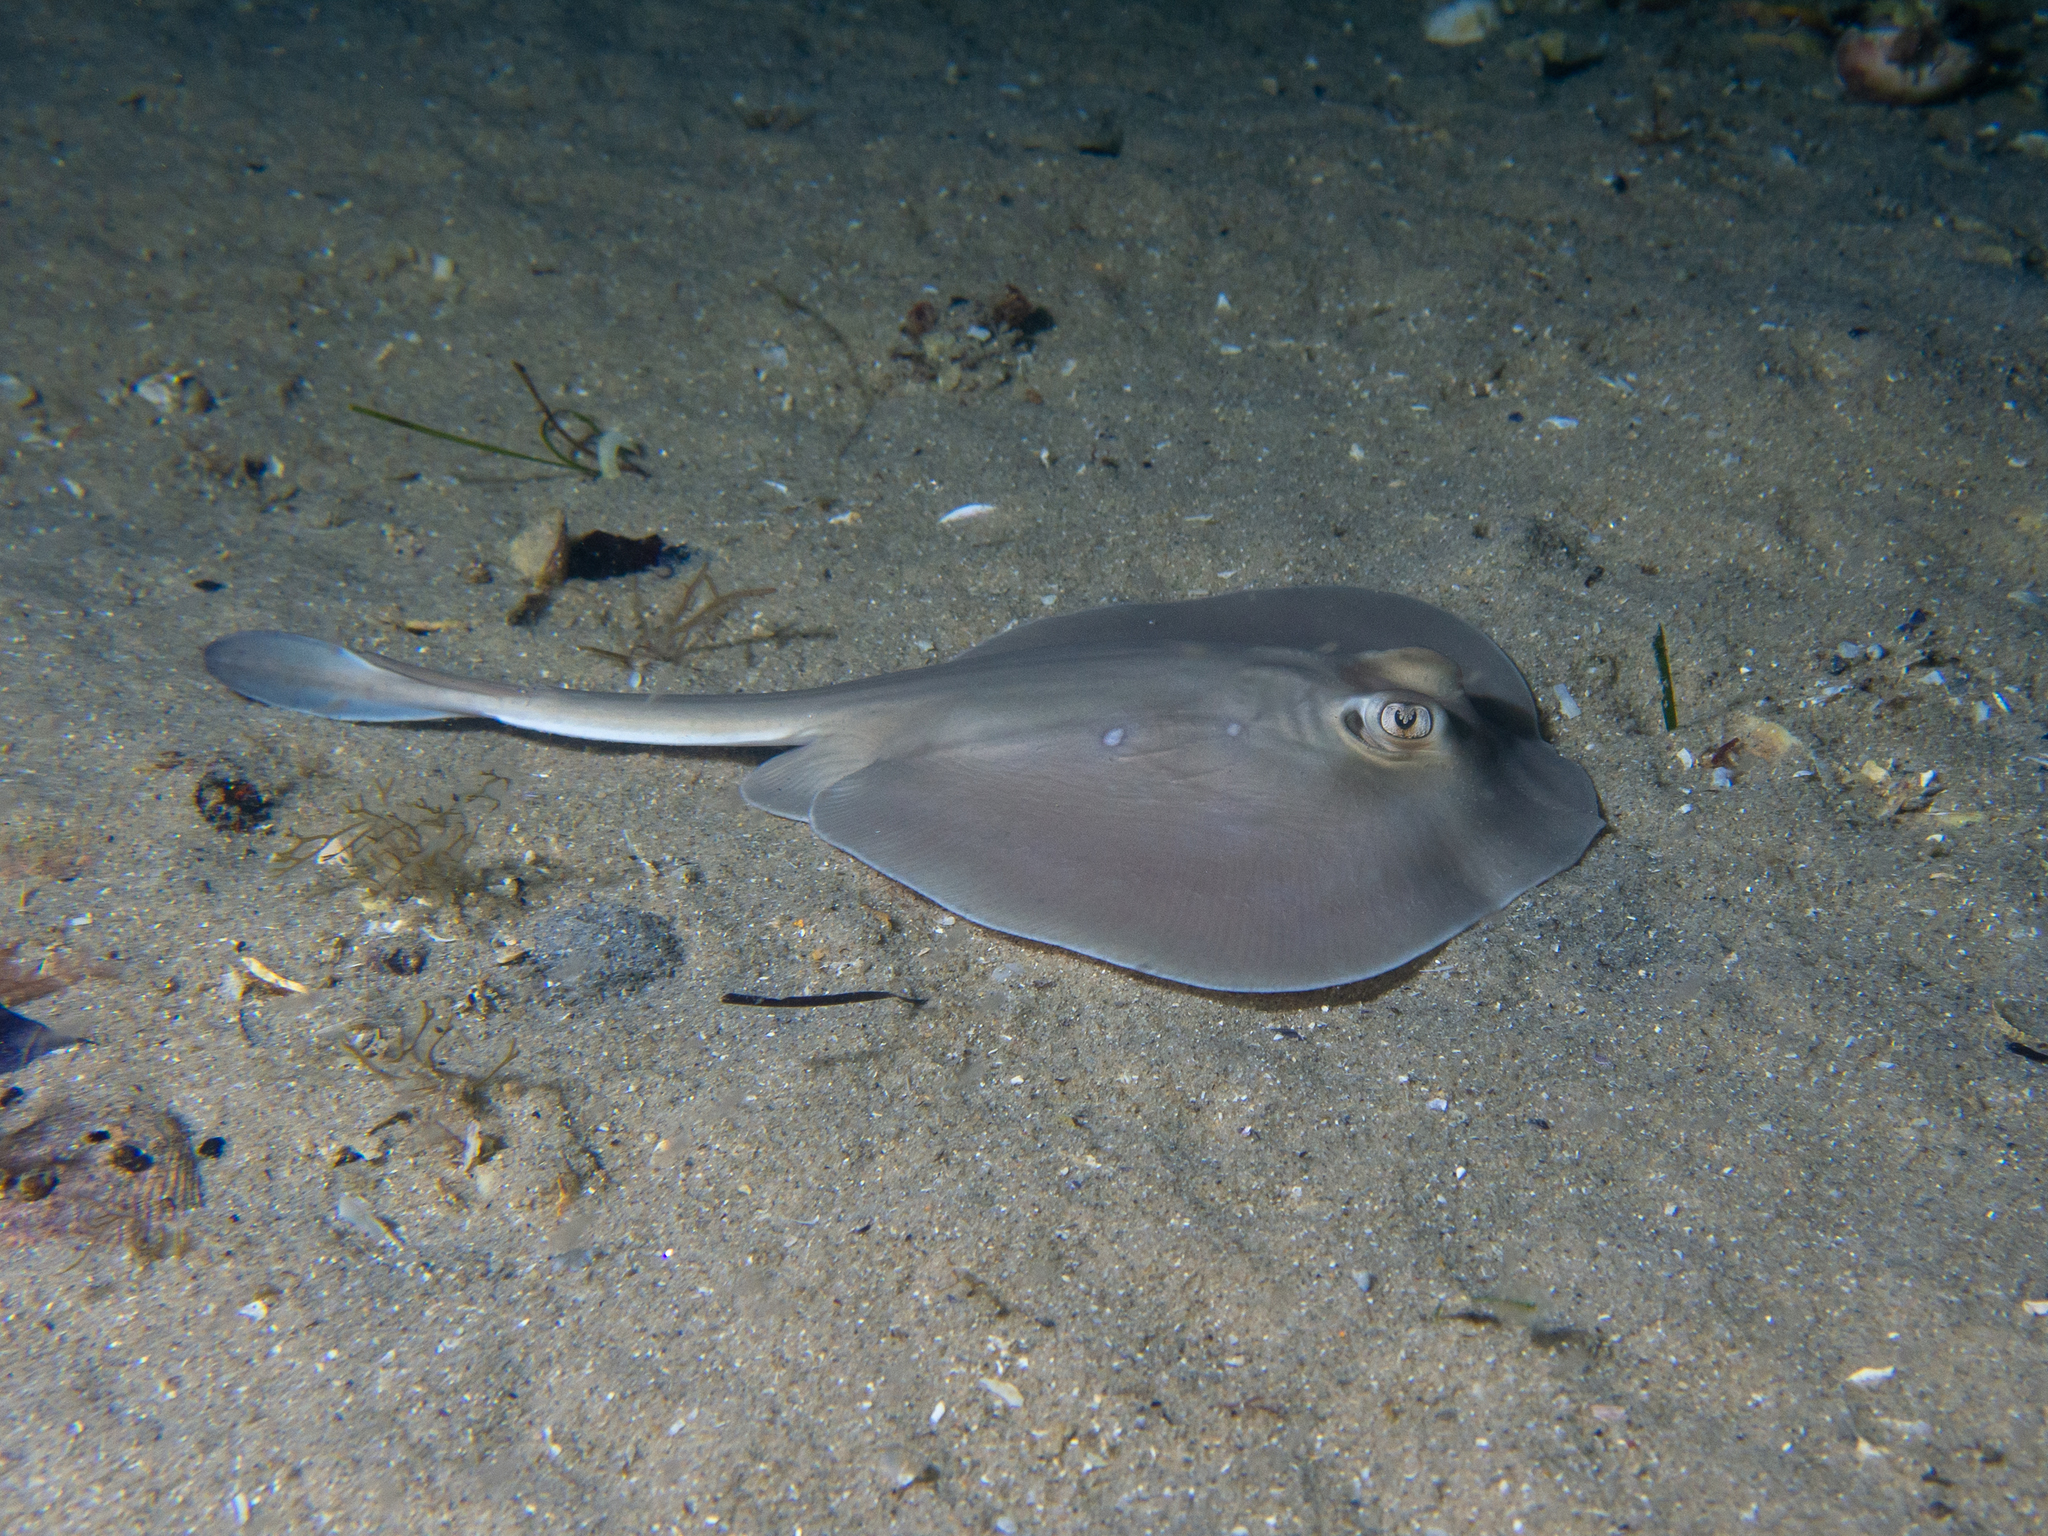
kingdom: Animalia
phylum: Chordata
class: Elasmobranchii
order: Myliobatiformes
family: Urolophidae
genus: Urolophus
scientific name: Urolophus paucimaculatus
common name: Sparsely-spotted stingaree
